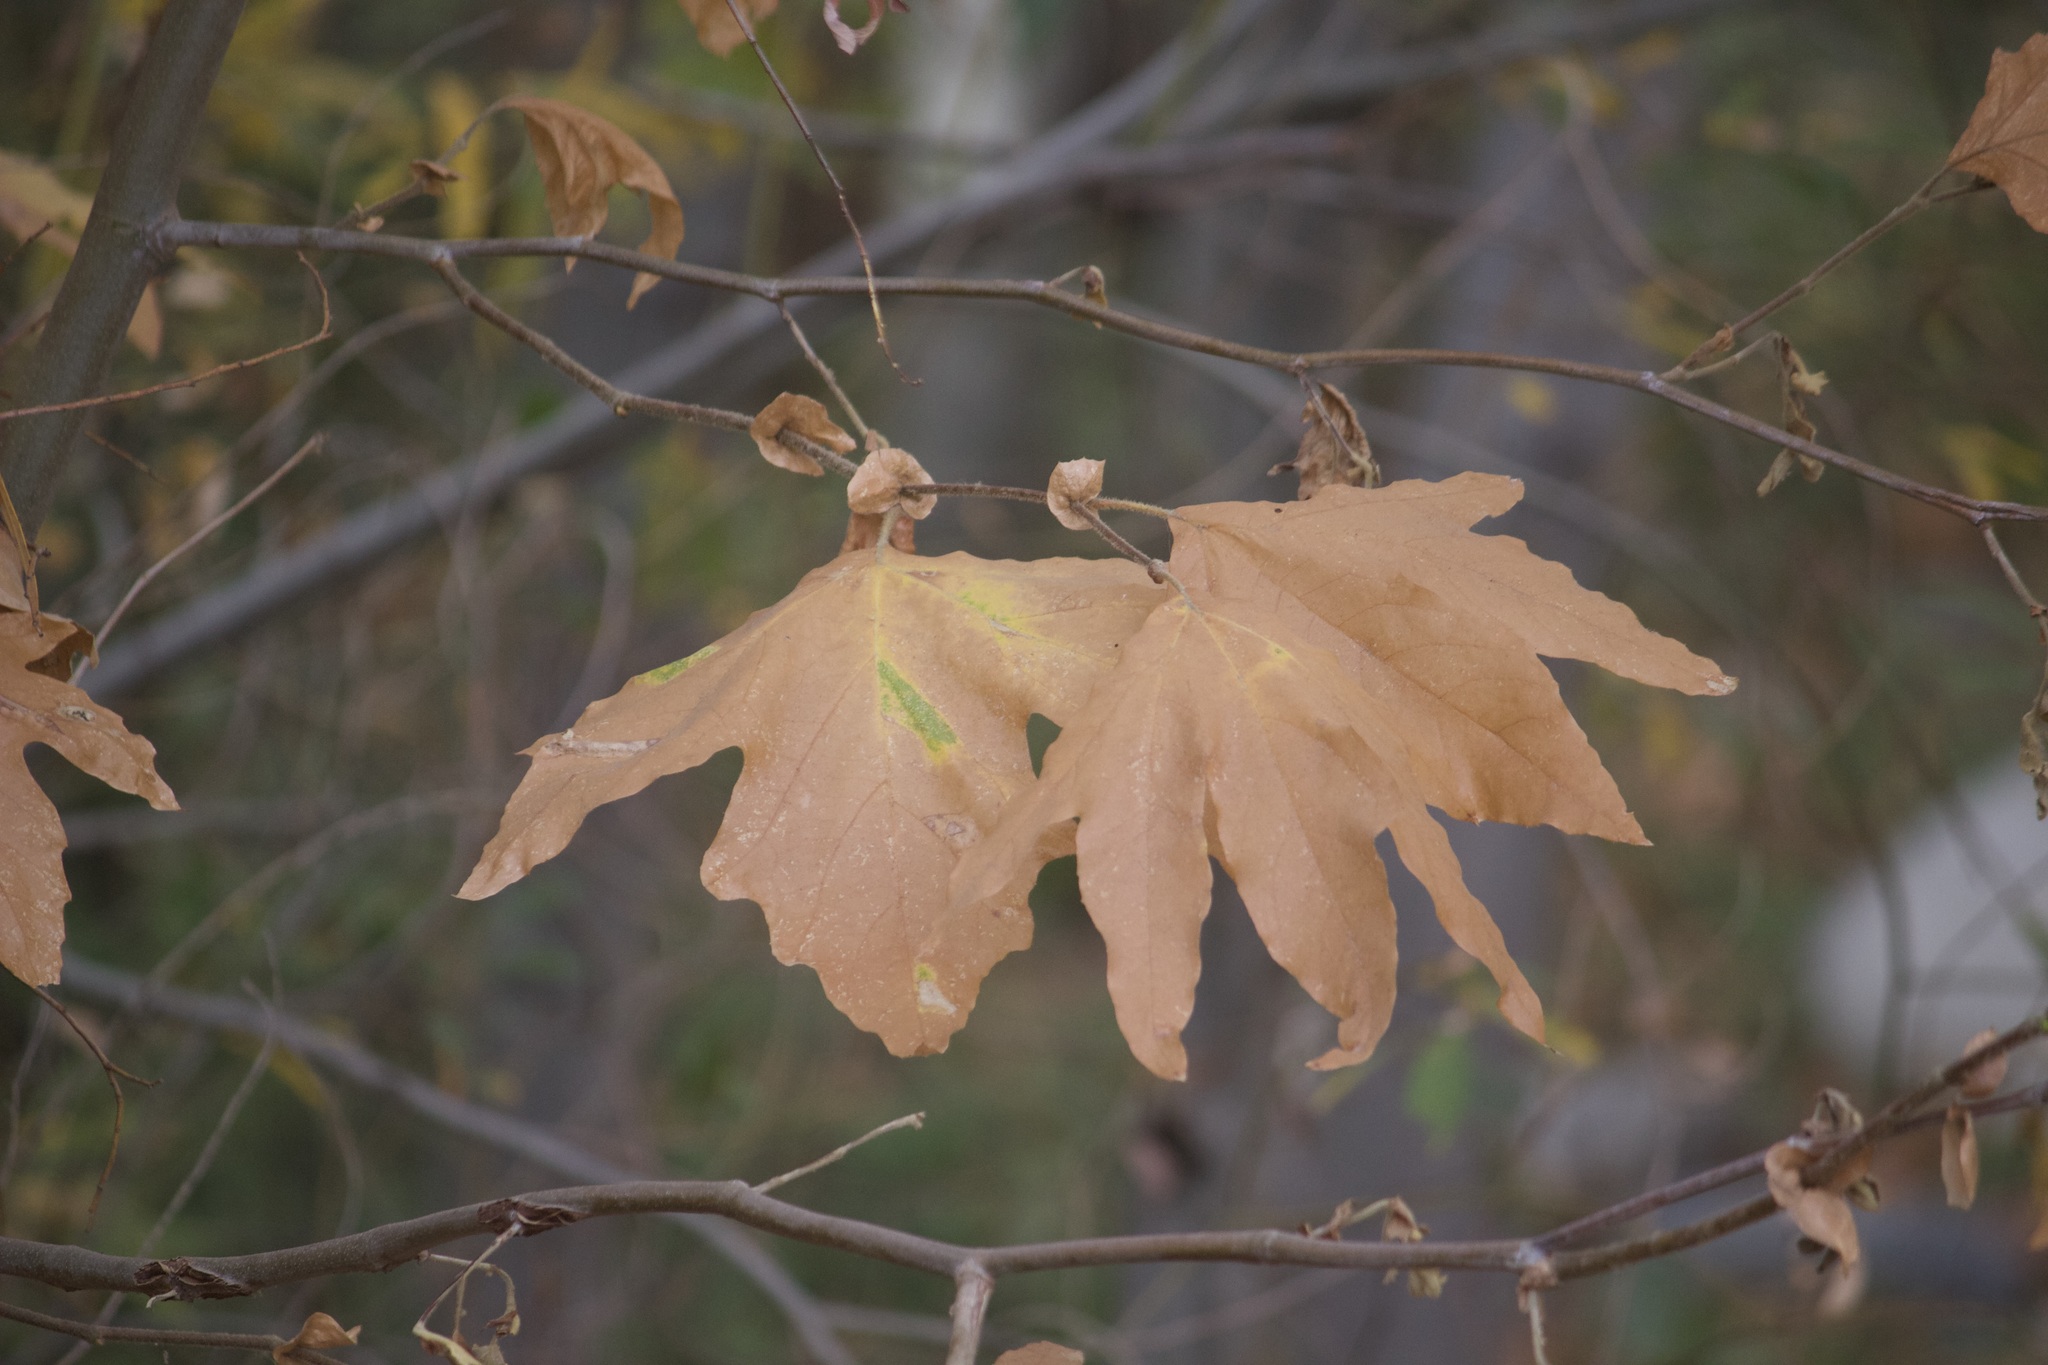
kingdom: Plantae
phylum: Tracheophyta
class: Magnoliopsida
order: Proteales
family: Platanaceae
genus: Platanus
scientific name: Platanus racemosa
